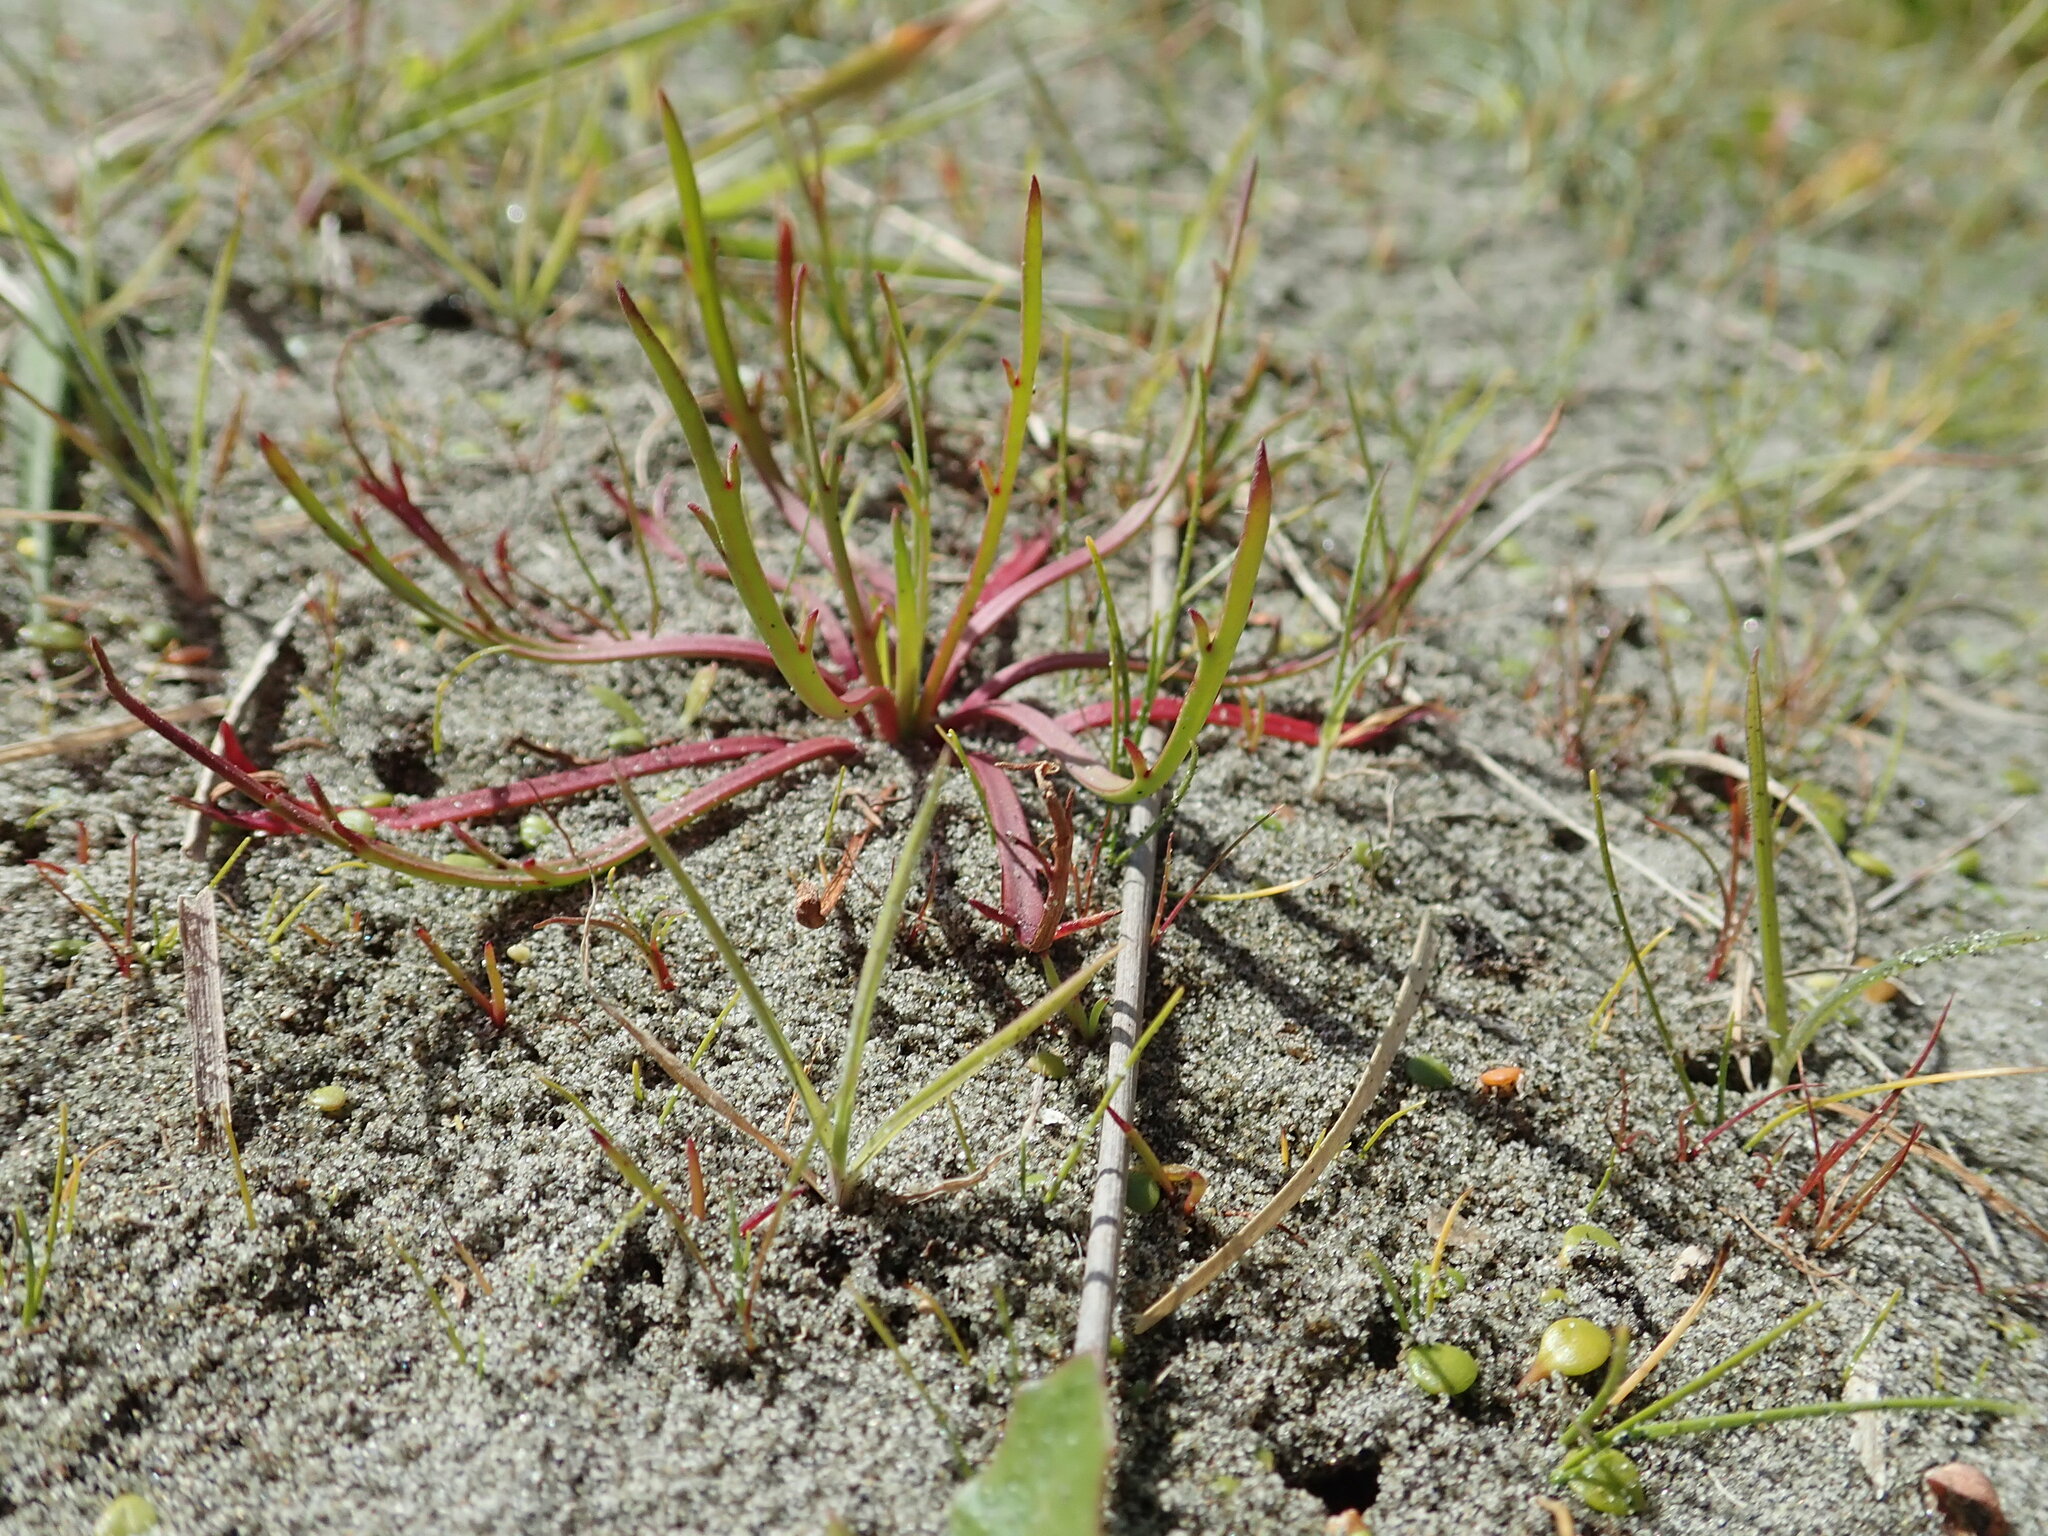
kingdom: Plantae
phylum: Tracheophyta
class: Magnoliopsida
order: Lamiales
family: Plantaginaceae
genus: Plantago
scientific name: Plantago coronopus
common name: Buck's-horn plantain
